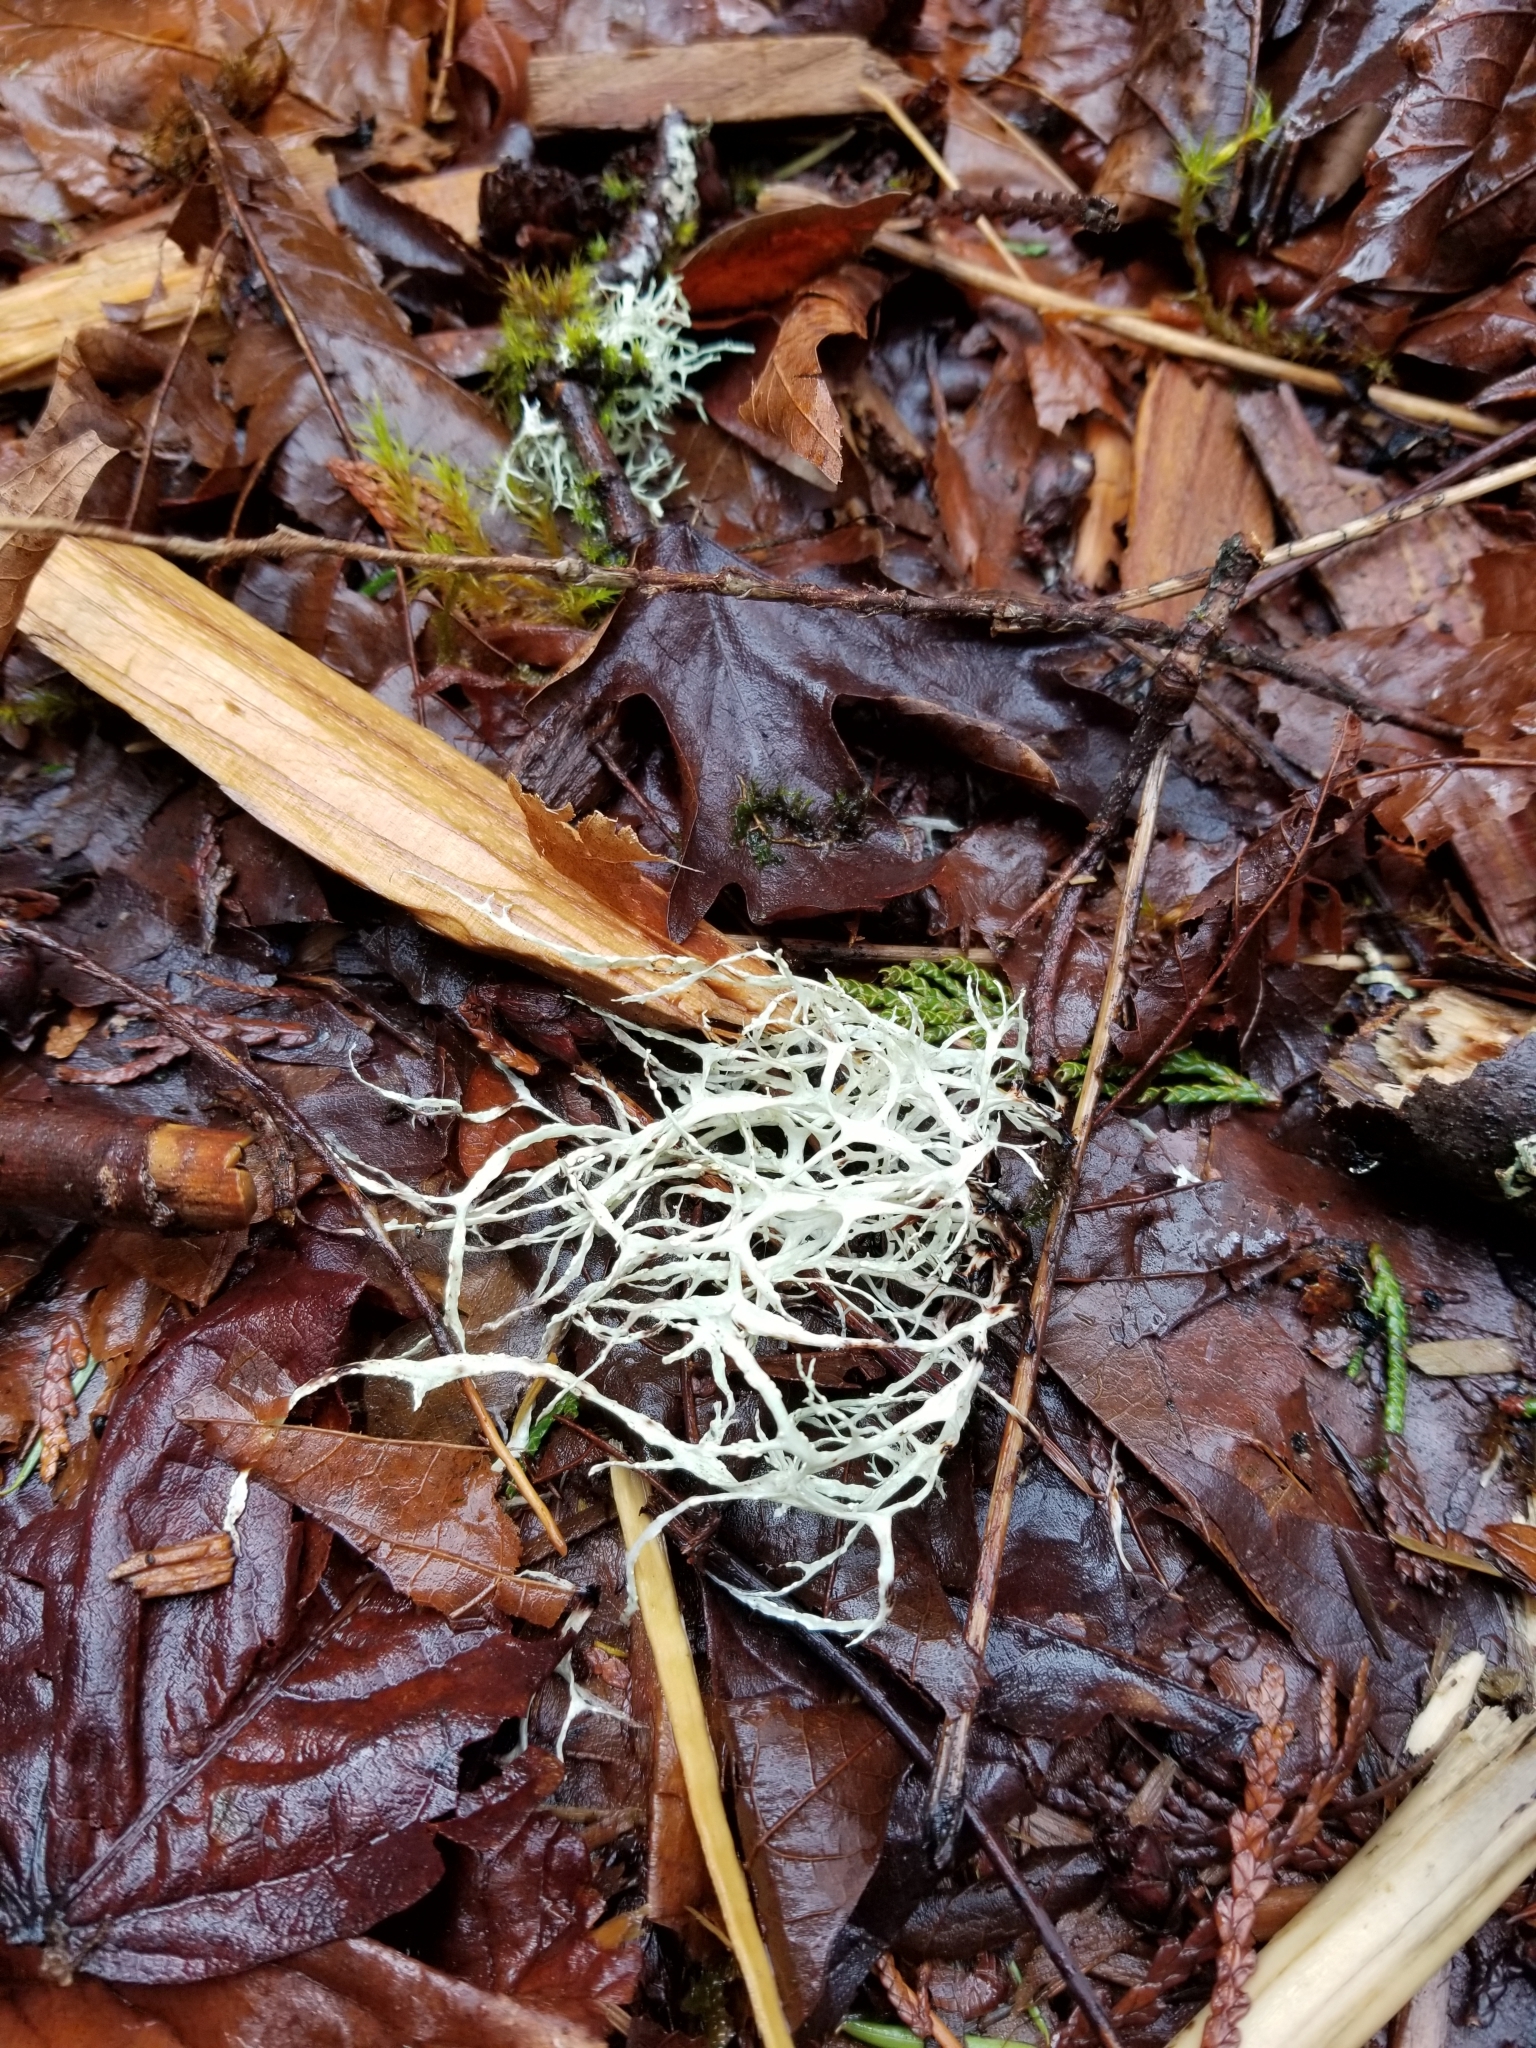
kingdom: Fungi
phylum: Ascomycota
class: Lecanoromycetes
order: Lecanorales
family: Ramalinaceae
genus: Ramalina
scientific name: Ramalina farinacea
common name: Farinose cartilage lichen
